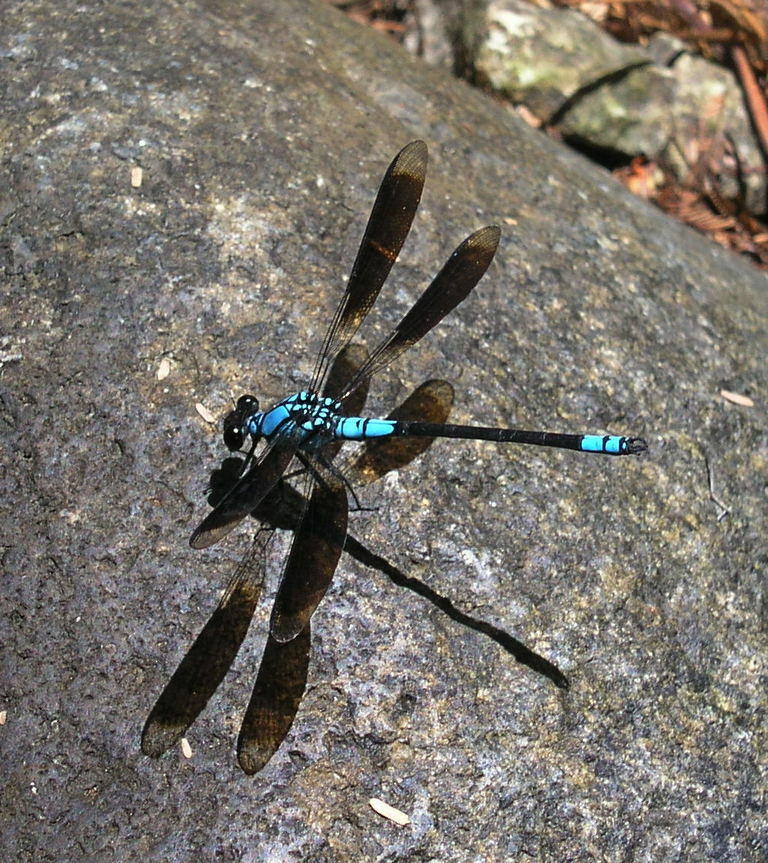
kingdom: Animalia
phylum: Arthropoda
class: Insecta
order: Odonata
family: Lestoideidae
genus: Diphlebia
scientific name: Diphlebia euphoeoides
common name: Tropical rockmaster
